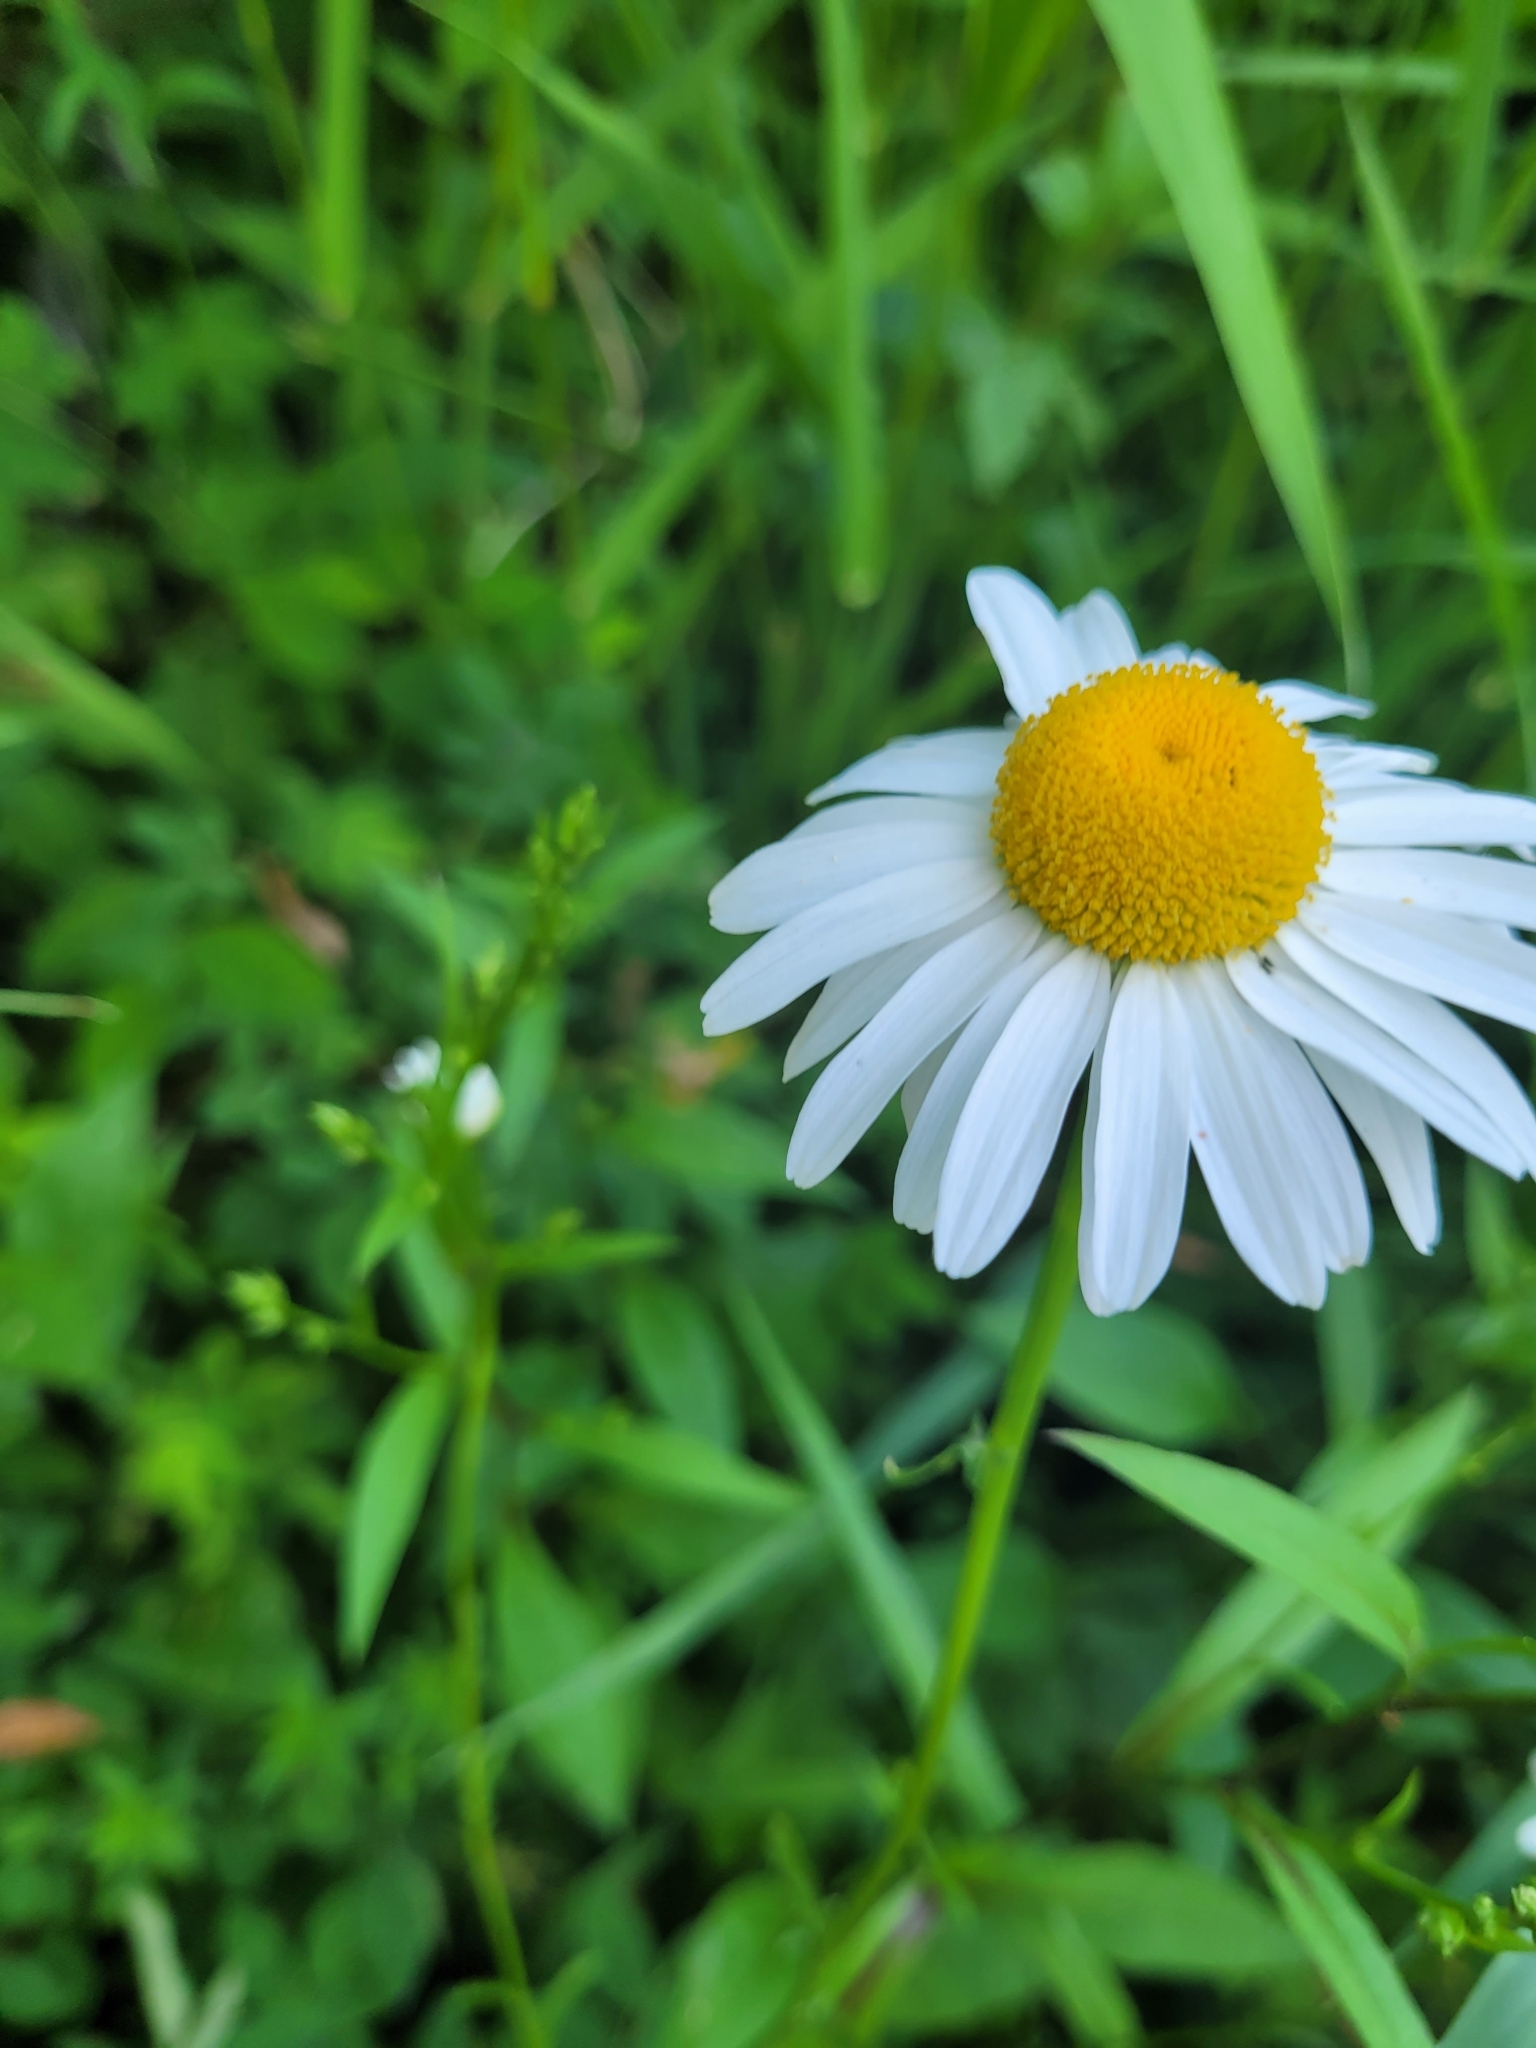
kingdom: Plantae
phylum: Tracheophyta
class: Magnoliopsida
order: Asterales
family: Asteraceae
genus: Leucanthemum
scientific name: Leucanthemum vulgare
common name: Oxeye daisy
